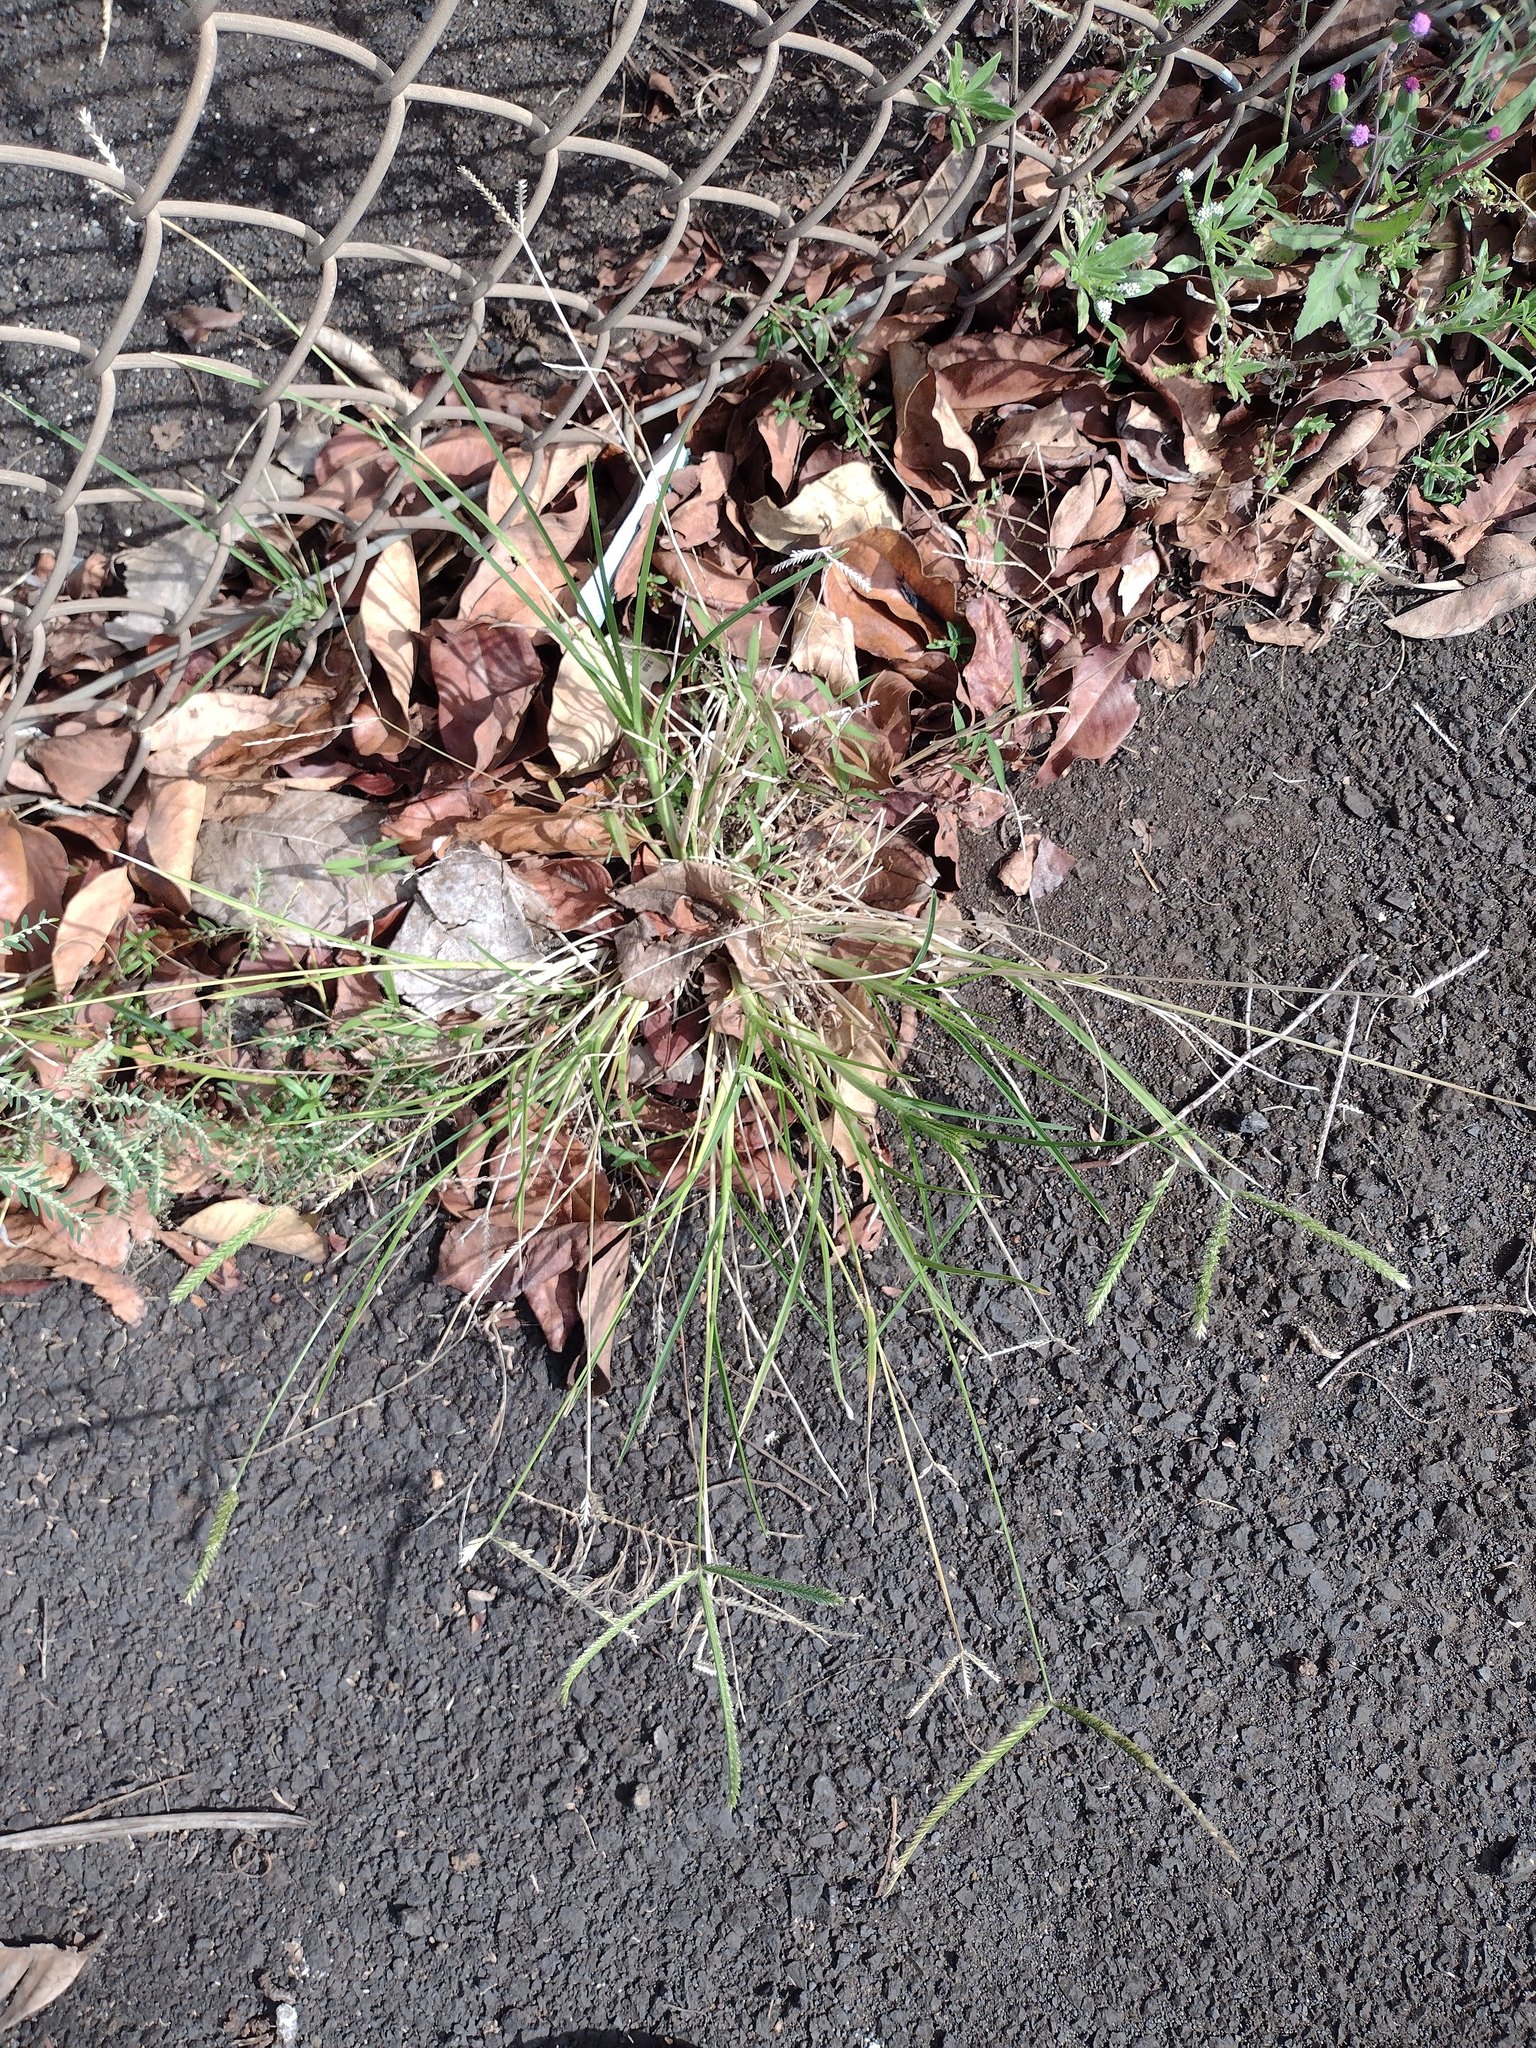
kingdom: Plantae
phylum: Tracheophyta
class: Liliopsida
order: Poales
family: Poaceae
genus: Eleusine
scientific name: Eleusine indica
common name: Yard-grass
